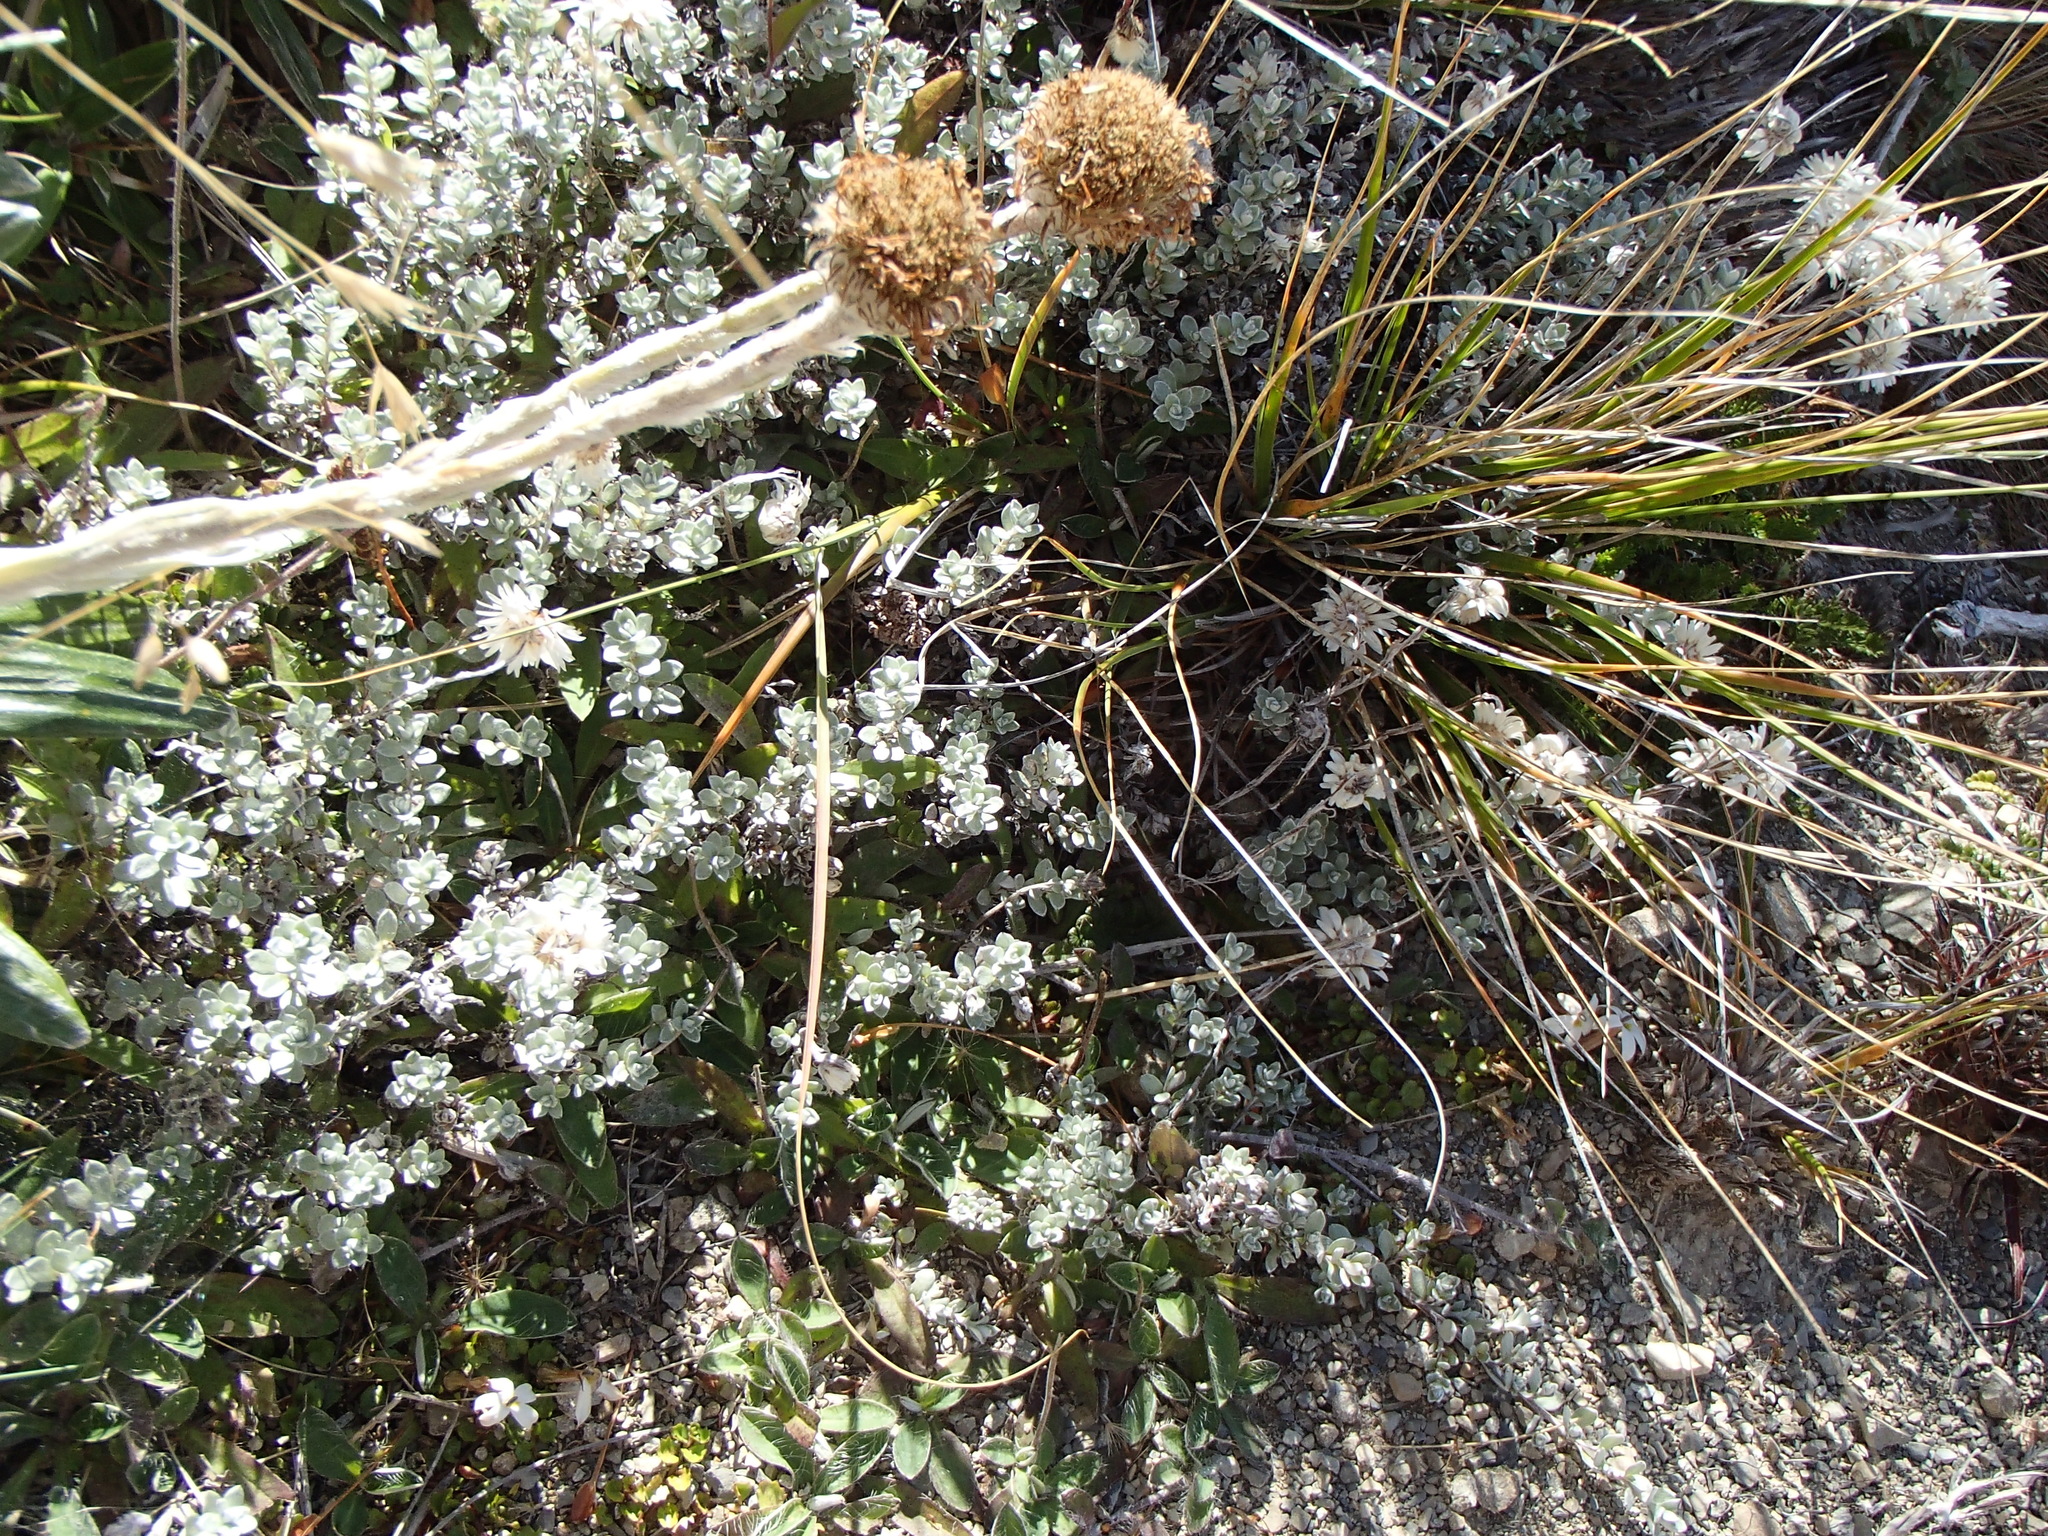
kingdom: Plantae
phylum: Tracheophyta
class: Magnoliopsida
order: Asterales
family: Asteraceae
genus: Anaphalioides
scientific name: Anaphalioides bellidioides
